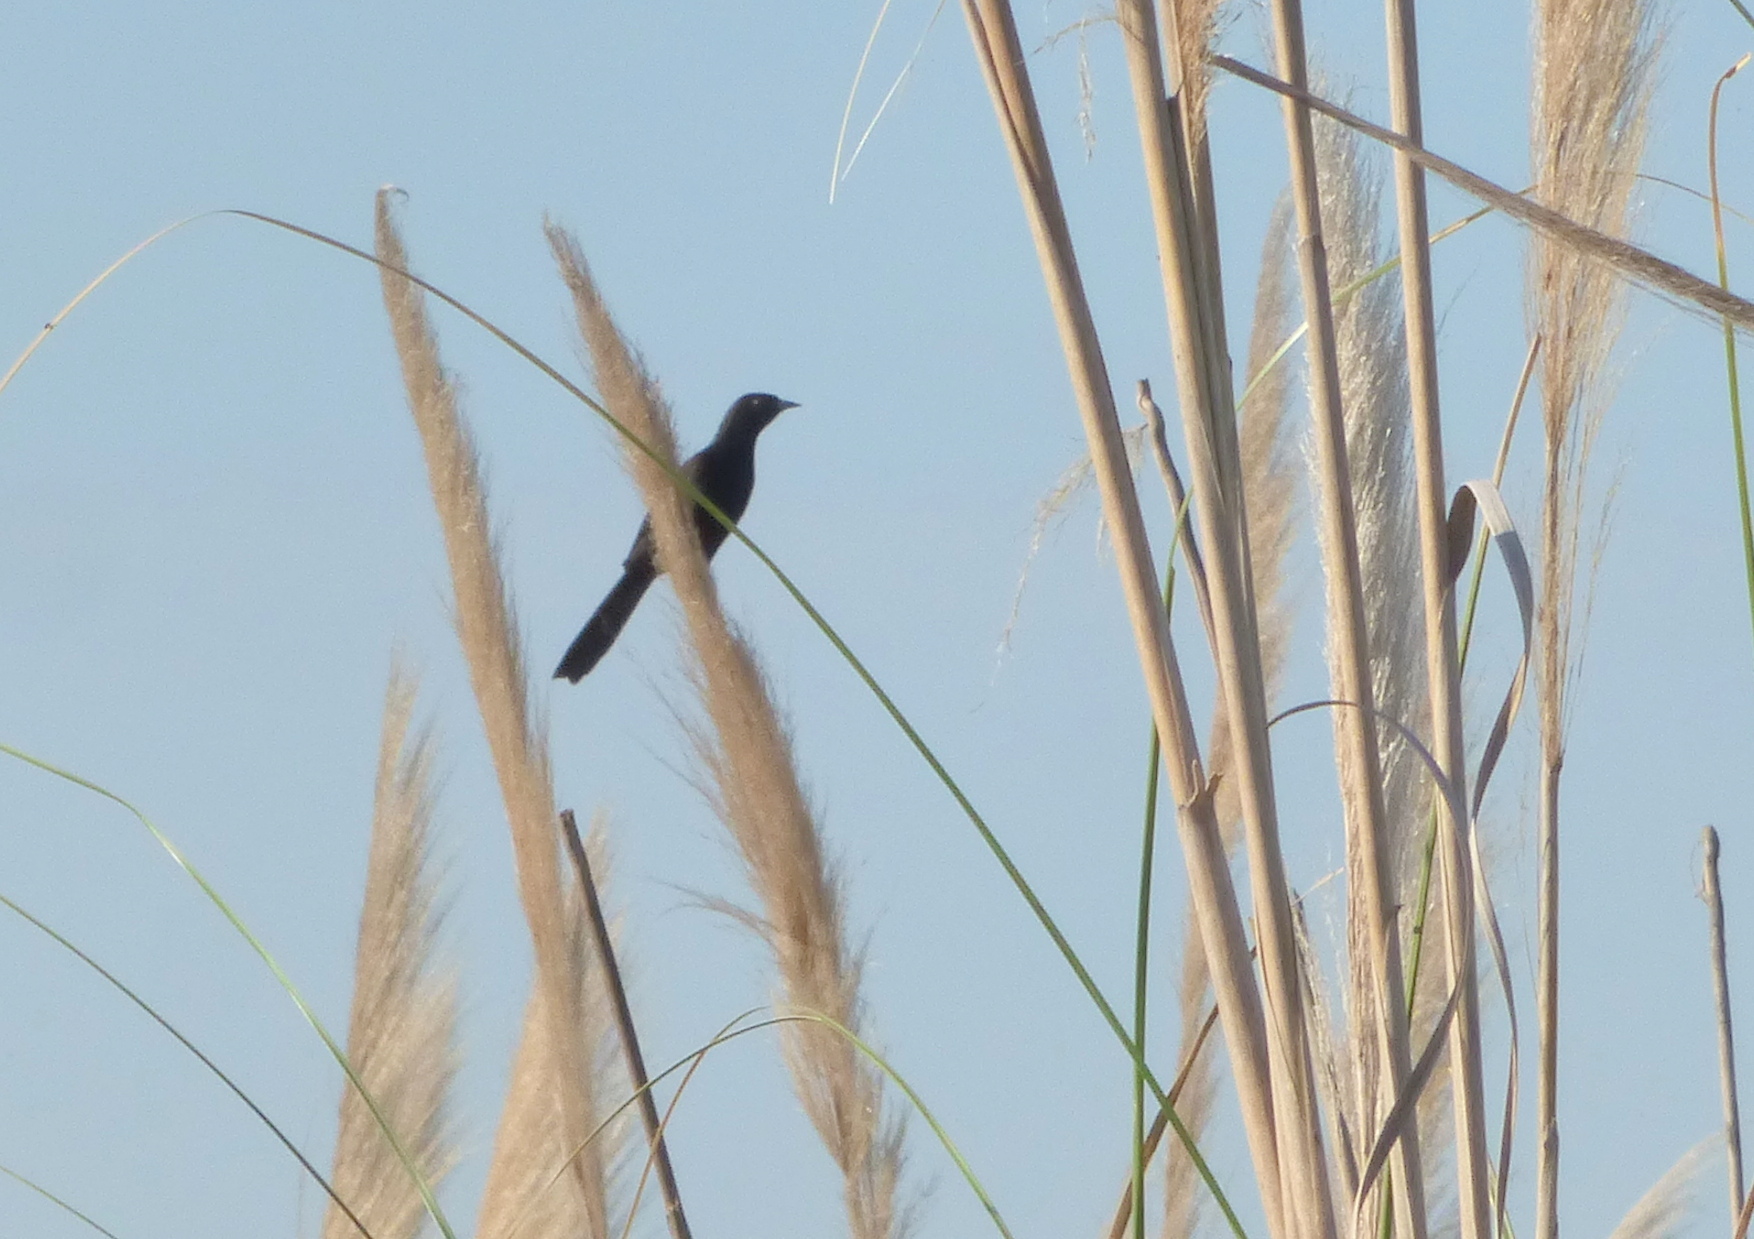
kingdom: Animalia
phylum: Chordata
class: Aves
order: Passeriformes
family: Icteridae
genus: Icterus
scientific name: Icterus cayanensis
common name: Epaulet oriole
